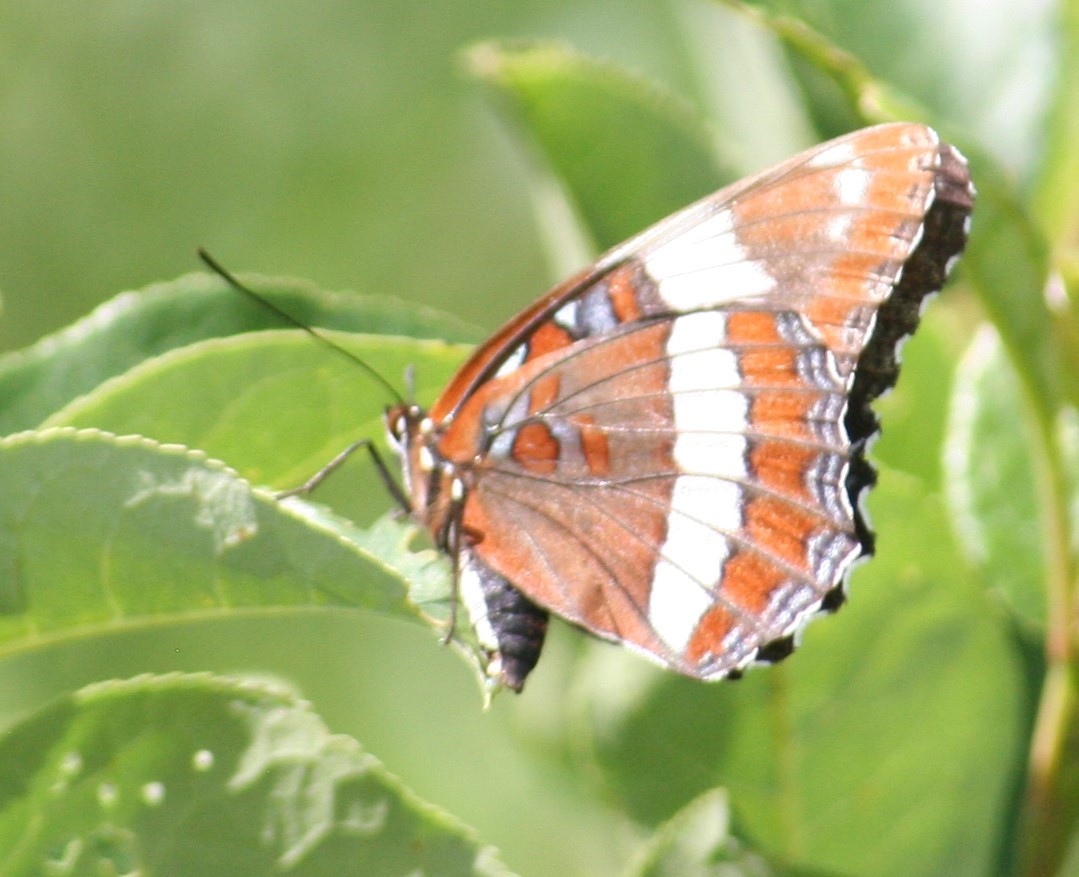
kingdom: Animalia
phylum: Arthropoda
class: Insecta
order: Lepidoptera
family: Nymphalidae
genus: Limenitis
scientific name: Limenitis arthemis
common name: Red-spotted admiral
